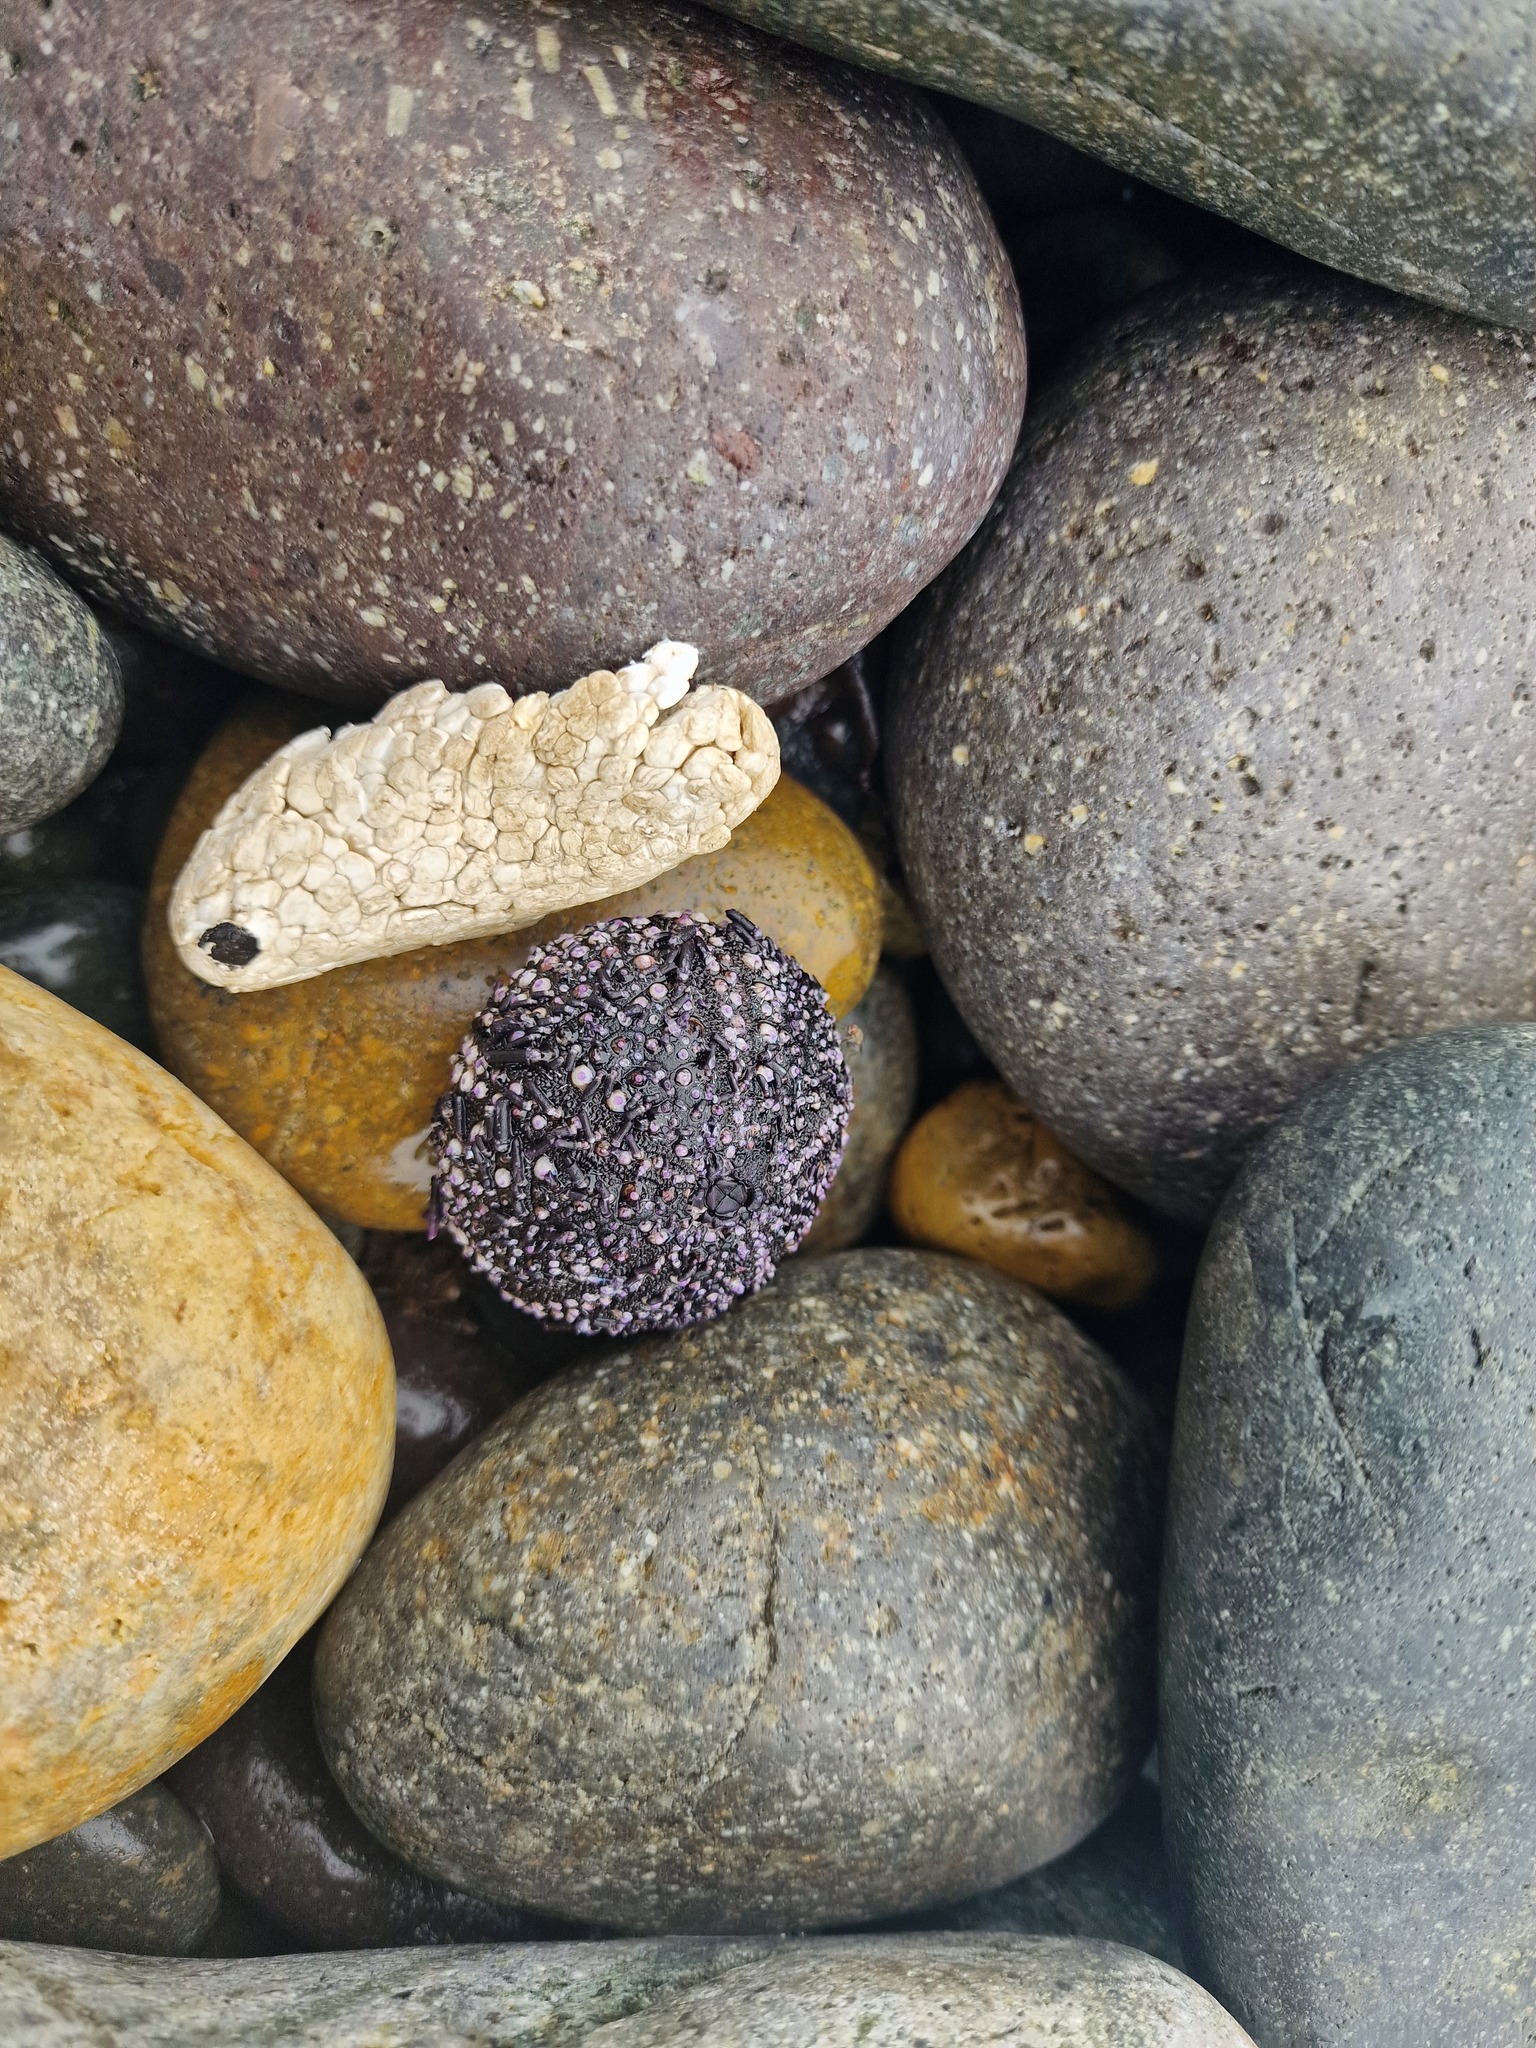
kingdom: Animalia
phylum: Echinodermata
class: Echinoidea
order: Arbacioida
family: Arbaciidae
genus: Tetrapygus
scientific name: Tetrapygus niger
